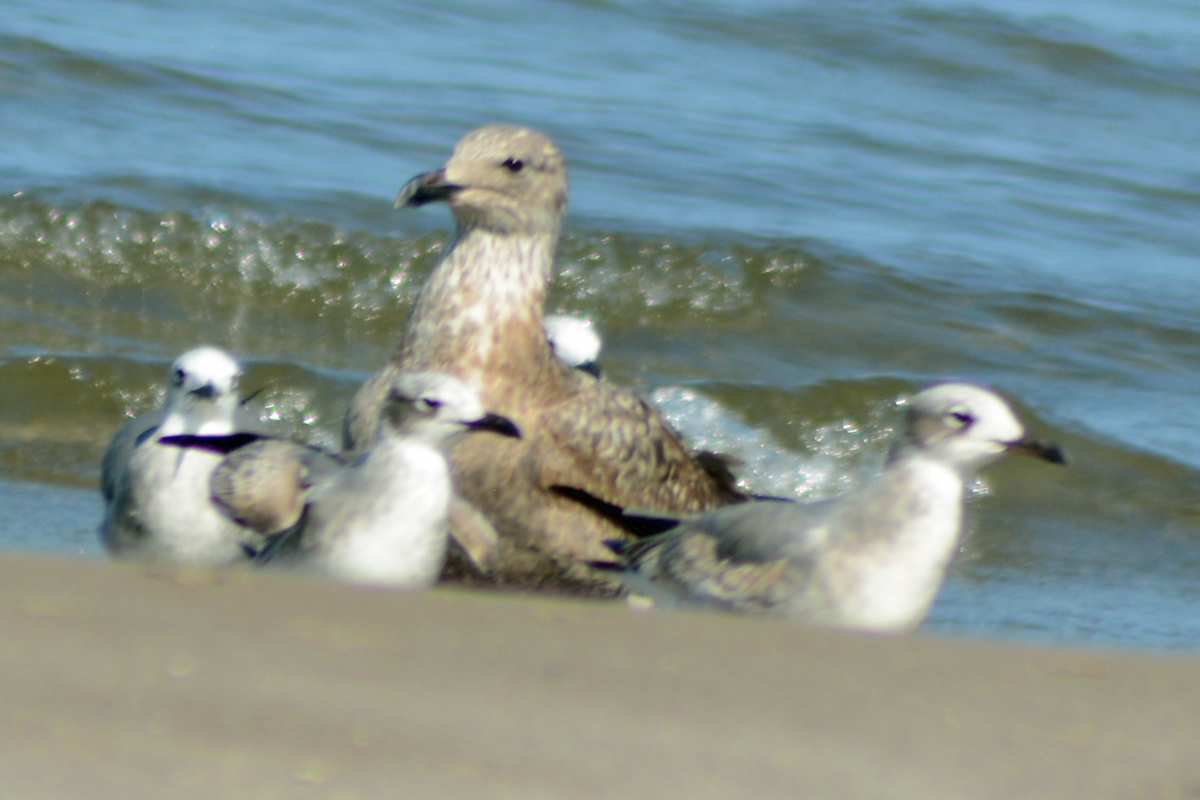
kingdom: Animalia
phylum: Chordata
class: Aves
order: Charadriiformes
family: Laridae
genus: Leucophaeus
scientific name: Leucophaeus atricilla
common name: Laughing gull
